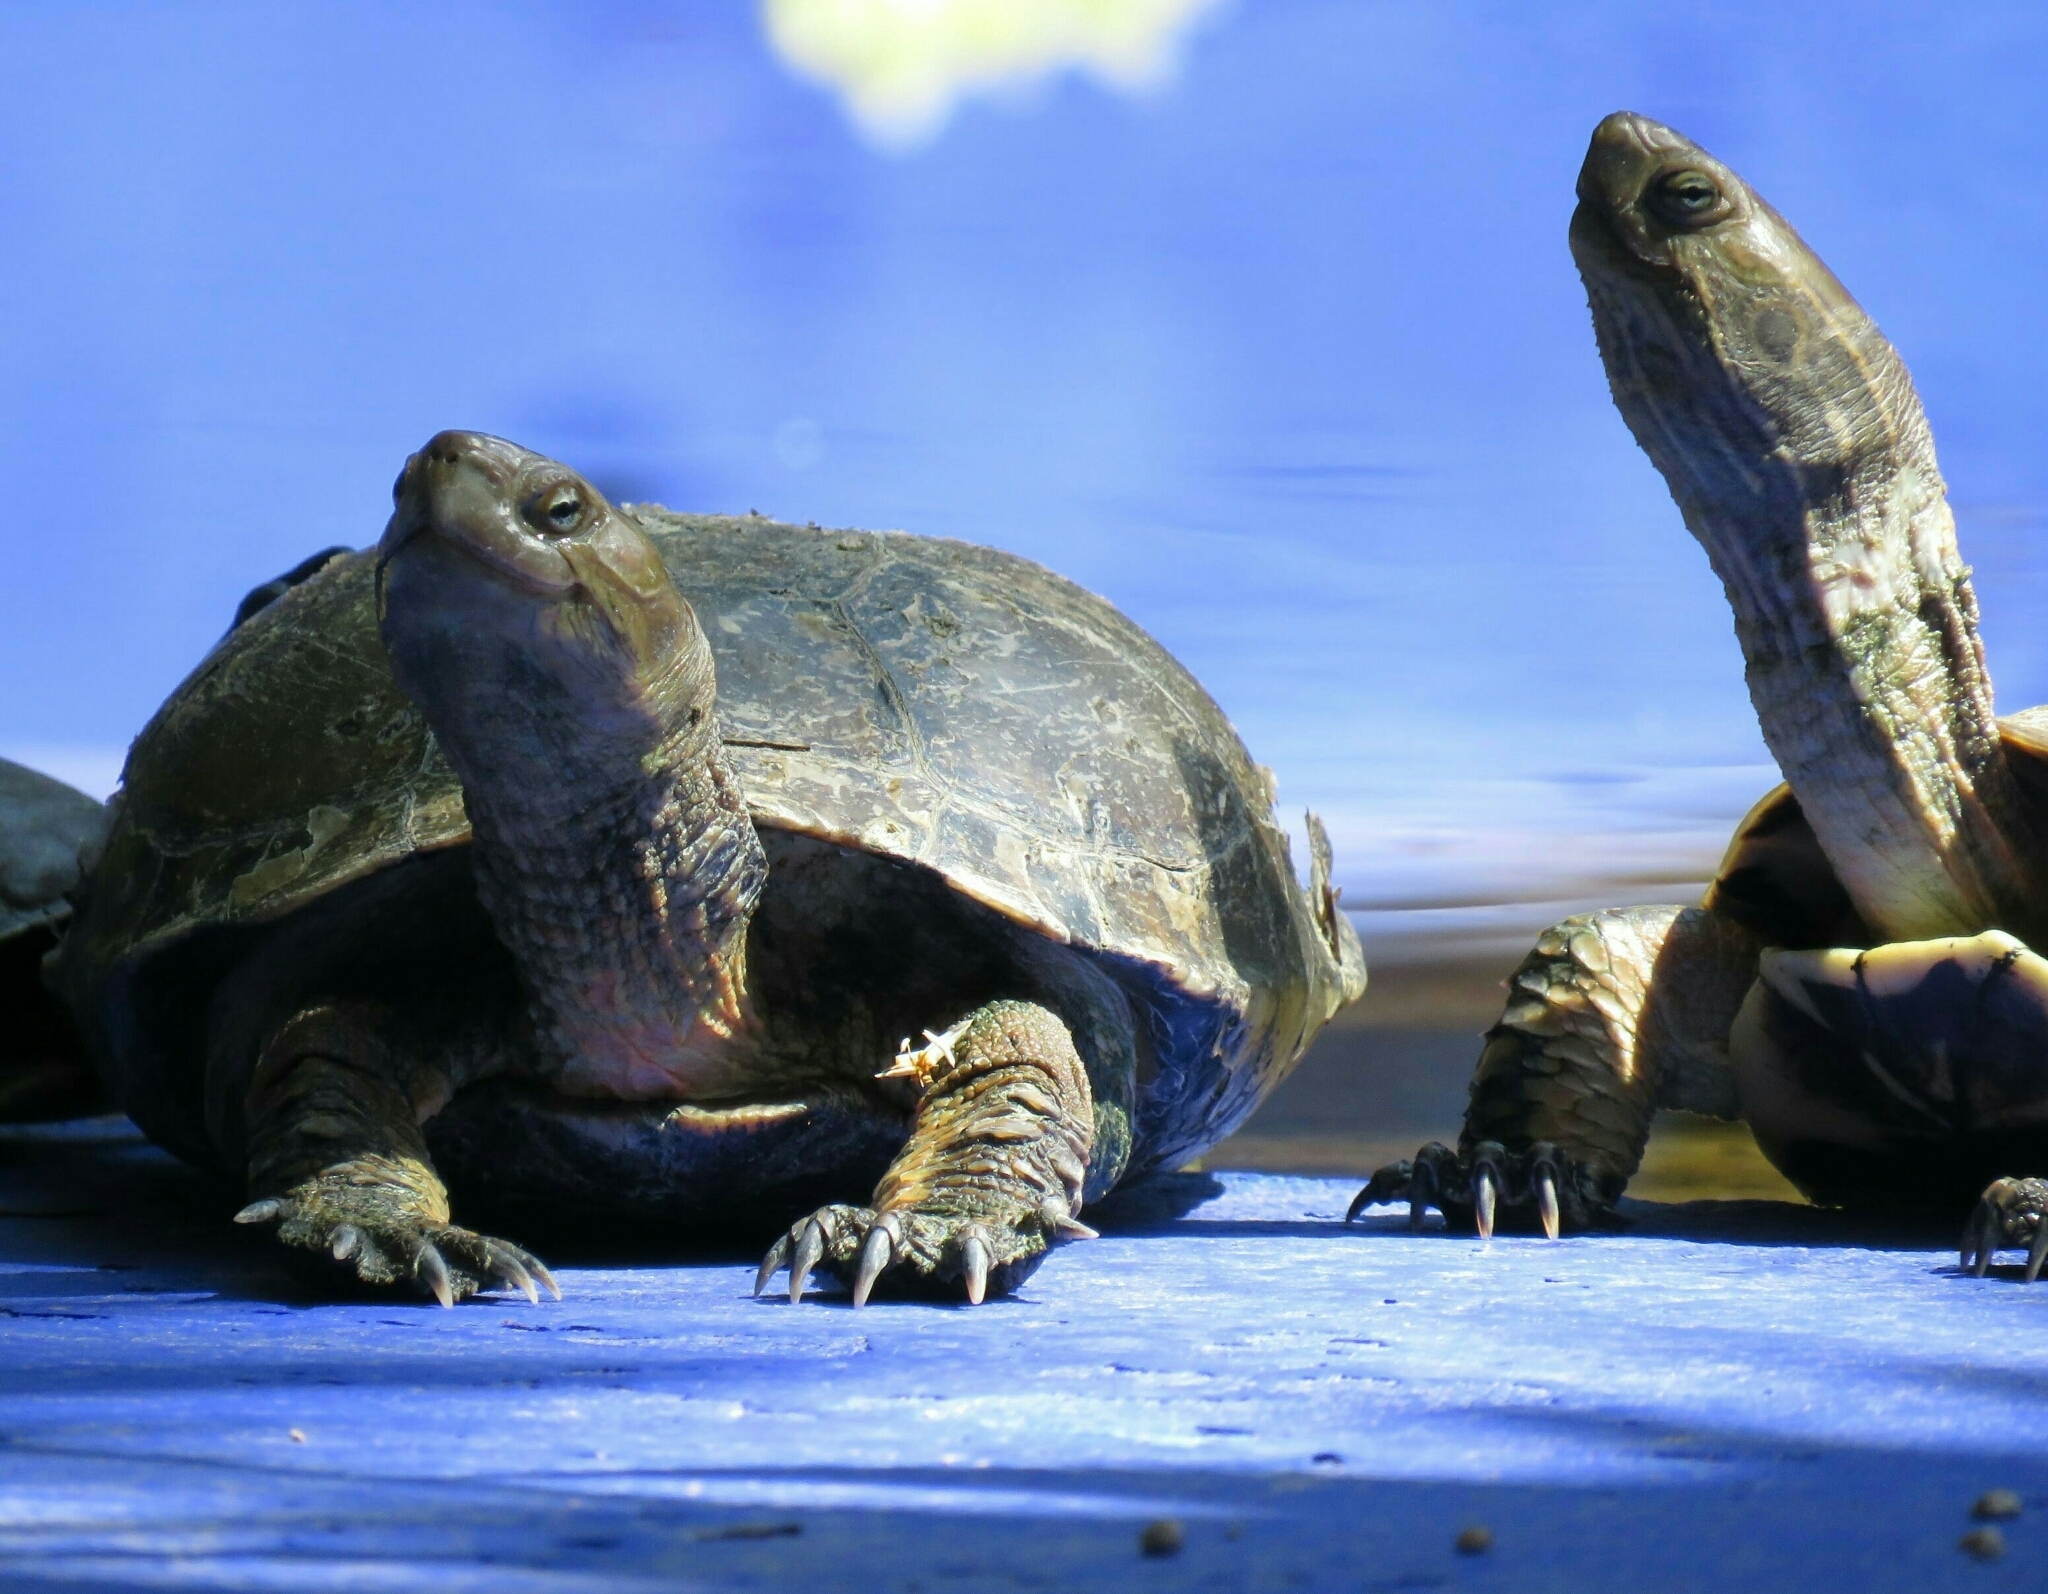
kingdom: Animalia
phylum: Chordata
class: Testudines
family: Geoemydidae
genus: Mauremys
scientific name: Mauremys leprosa
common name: Mediterranean pond turtle
